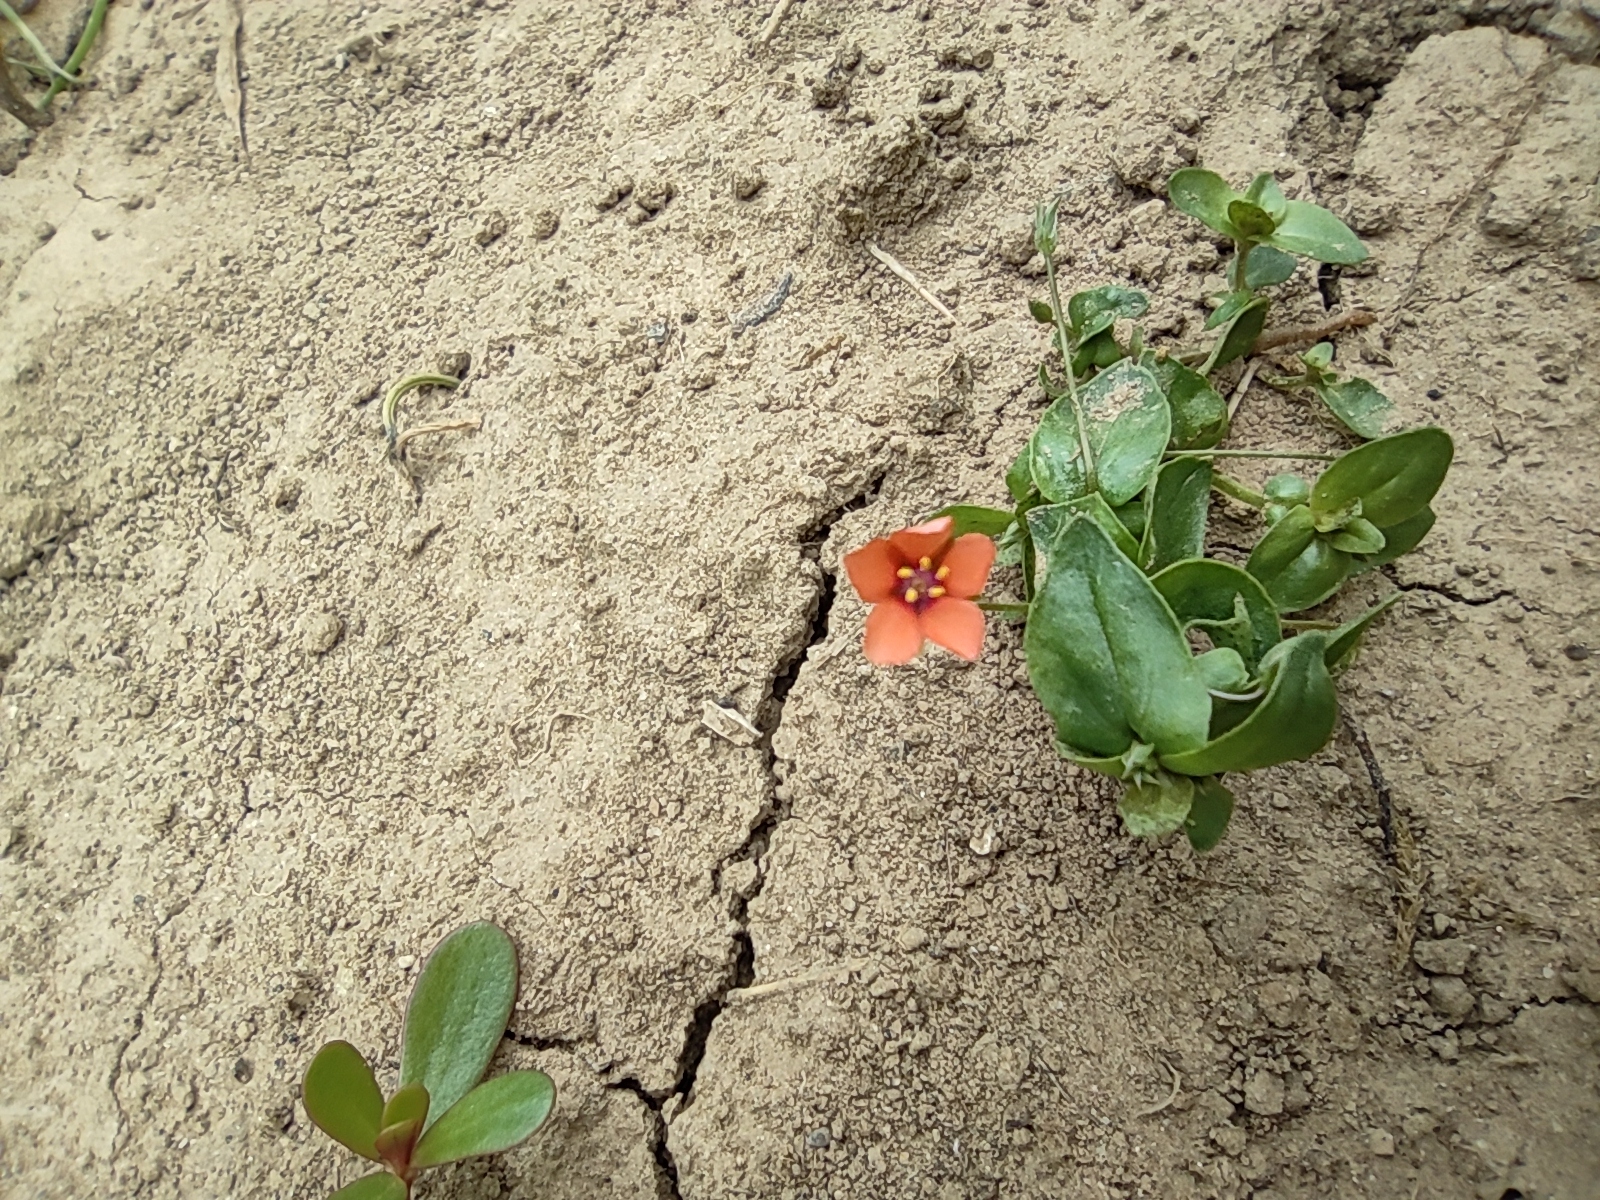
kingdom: Plantae
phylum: Tracheophyta
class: Magnoliopsida
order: Ericales
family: Primulaceae
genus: Lysimachia
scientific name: Lysimachia arvensis
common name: Scarlet pimpernel
